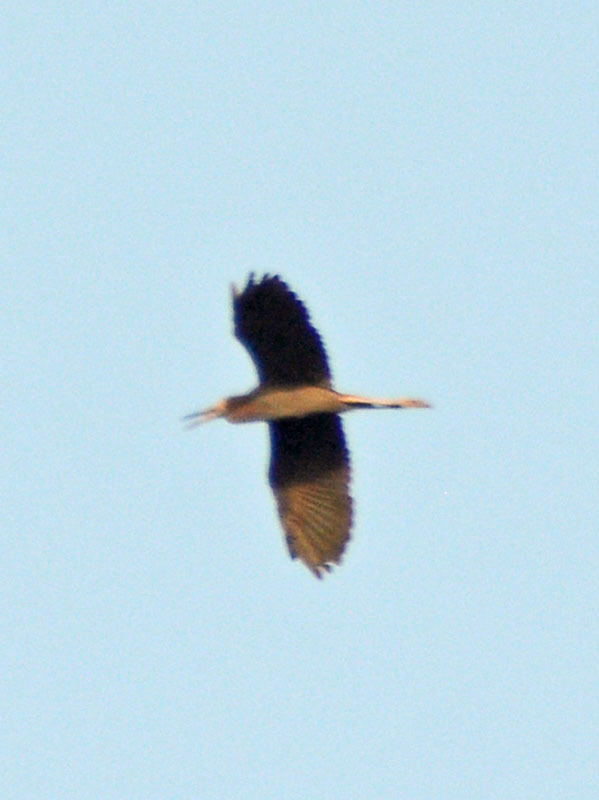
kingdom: Animalia
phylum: Chordata
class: Aves
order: Pelecaniformes
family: Ardeidae
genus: Egretta
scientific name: Egretta rufescens
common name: Reddish egret
